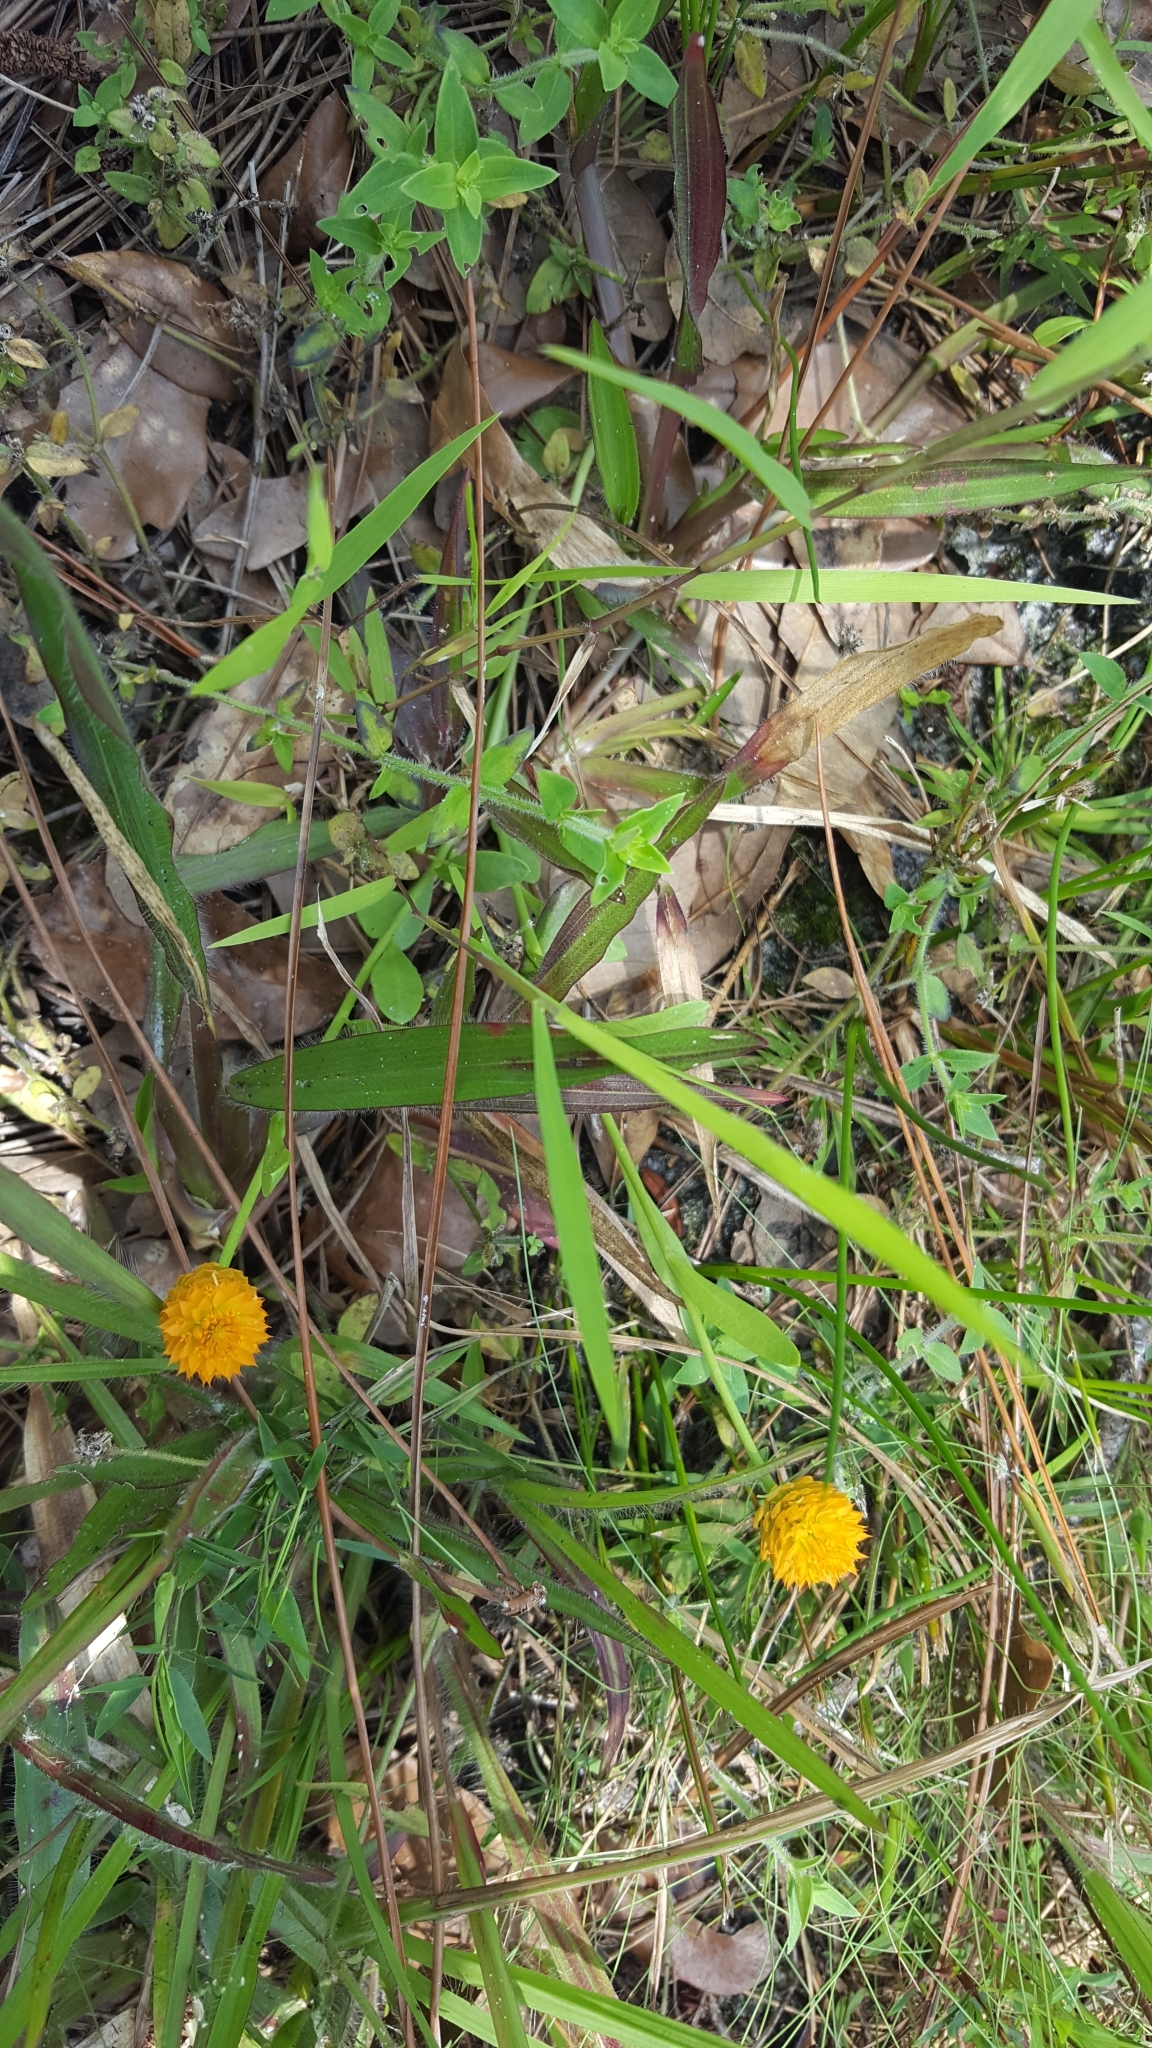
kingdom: Plantae
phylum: Tracheophyta
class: Magnoliopsida
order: Fabales
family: Polygalaceae
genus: Polygala
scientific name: Polygala lutea
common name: Orange milkwort
